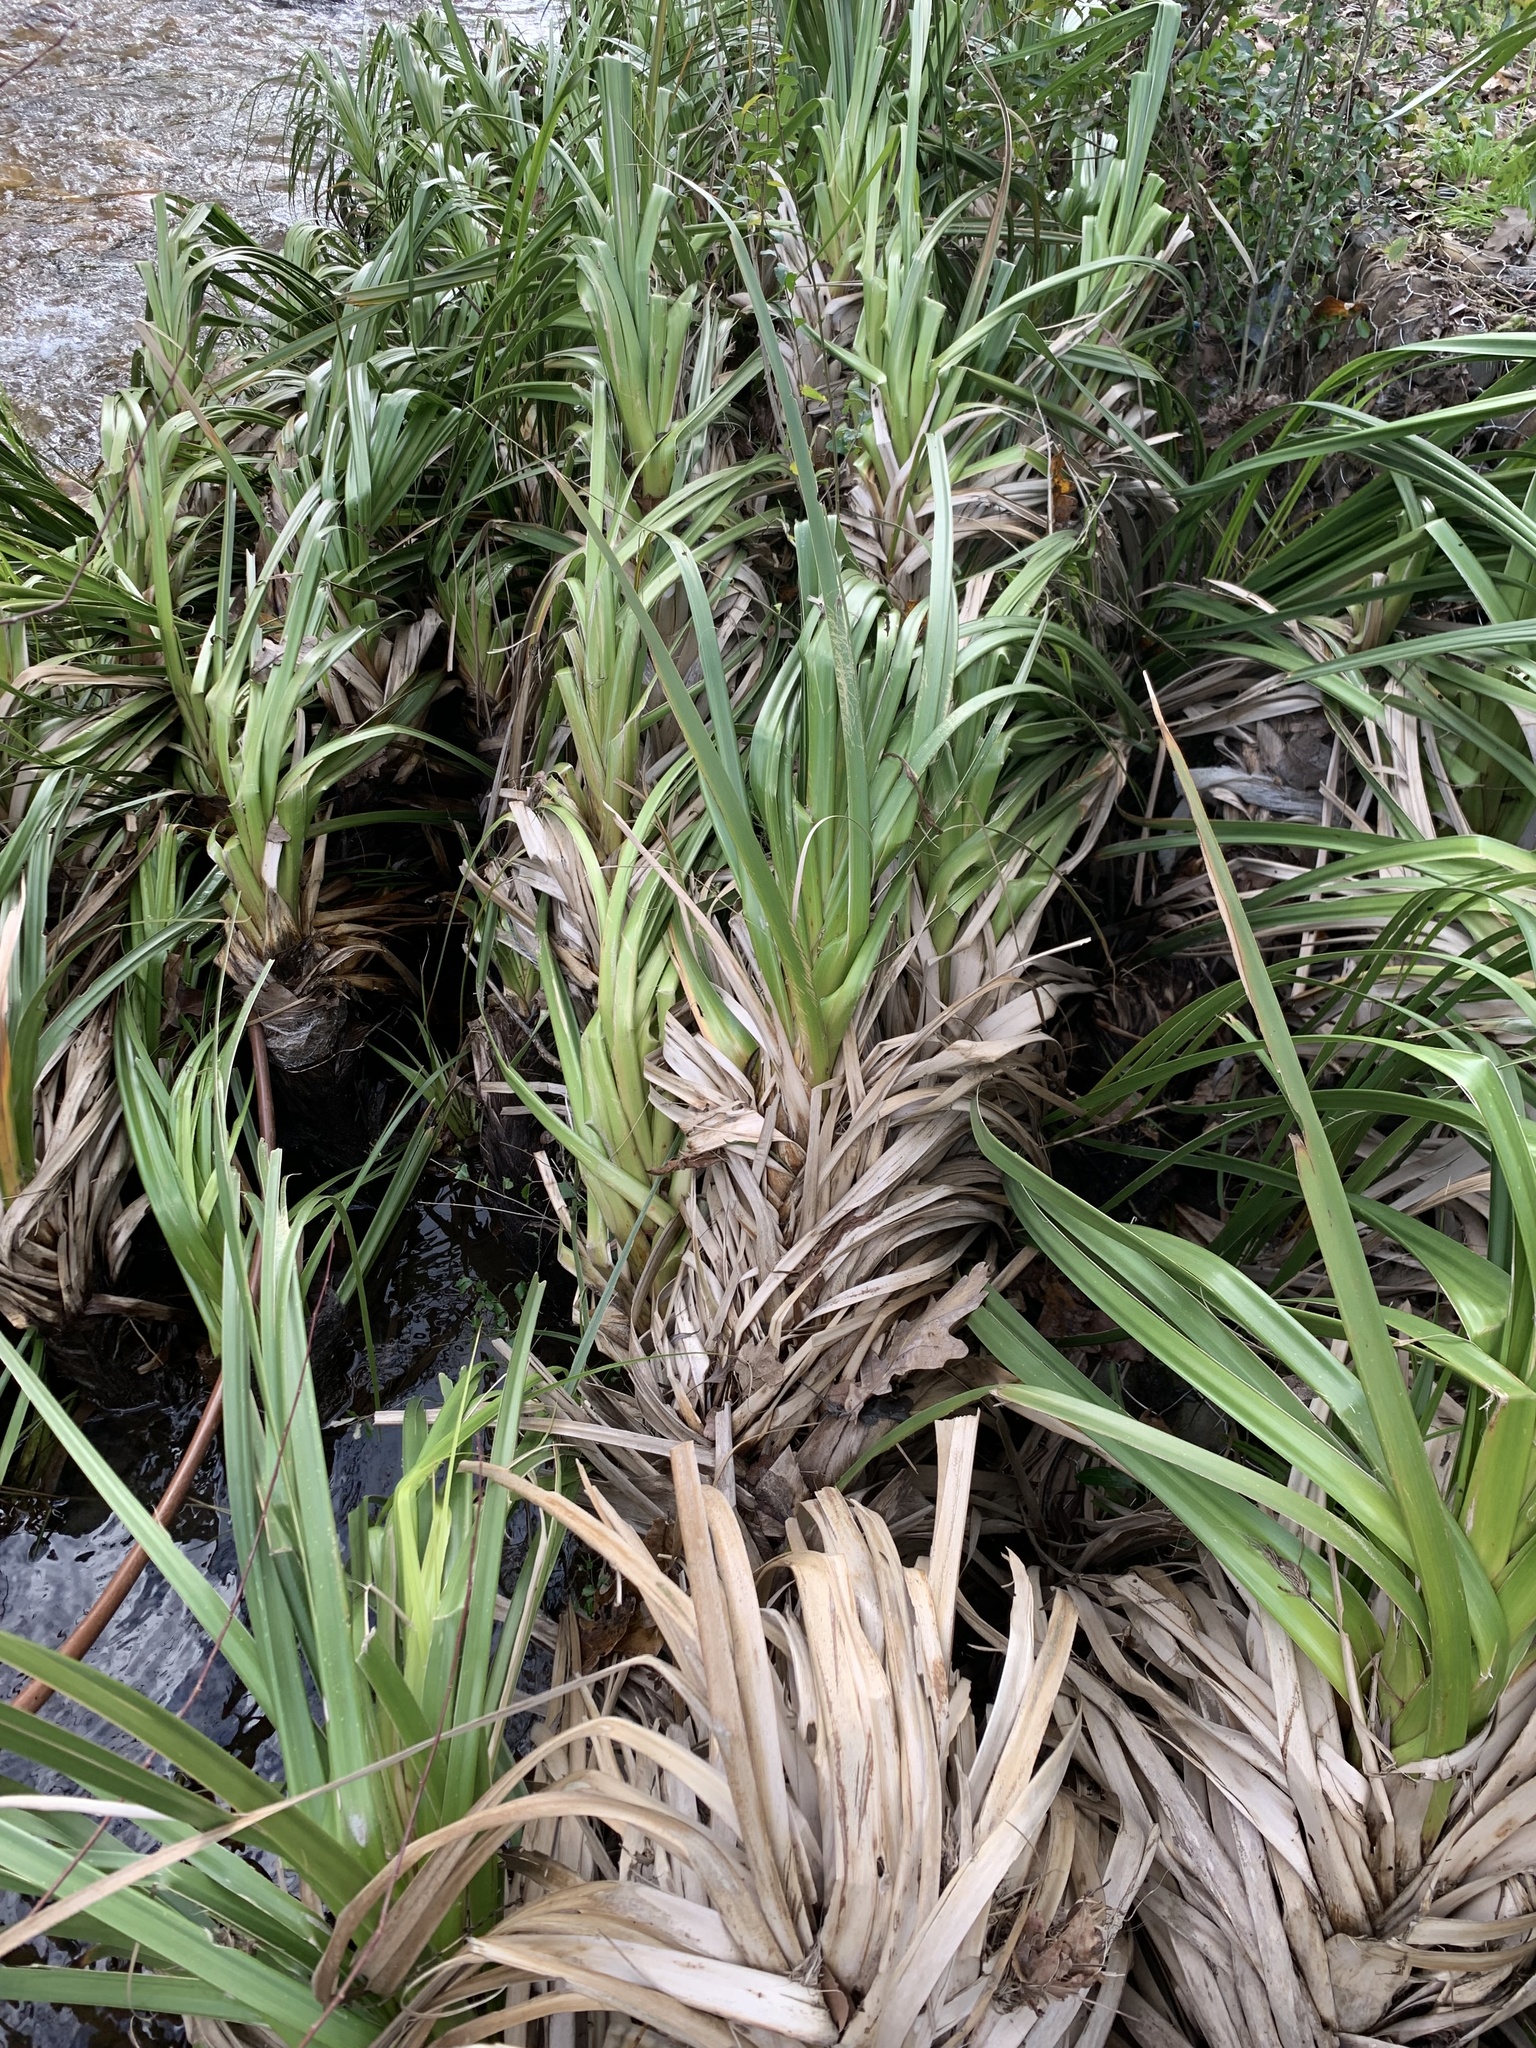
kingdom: Plantae
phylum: Tracheophyta
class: Liliopsida
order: Poales
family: Thurniaceae
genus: Prionium
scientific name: Prionium serratum
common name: Palmiet
